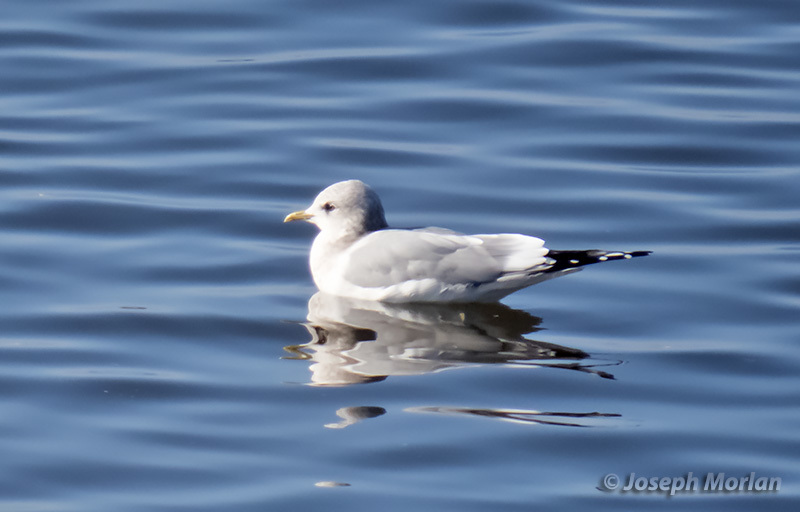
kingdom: Animalia
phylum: Chordata
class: Aves
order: Charadriiformes
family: Laridae
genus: Larus
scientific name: Larus brachyrhynchus
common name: Short-billed gull
